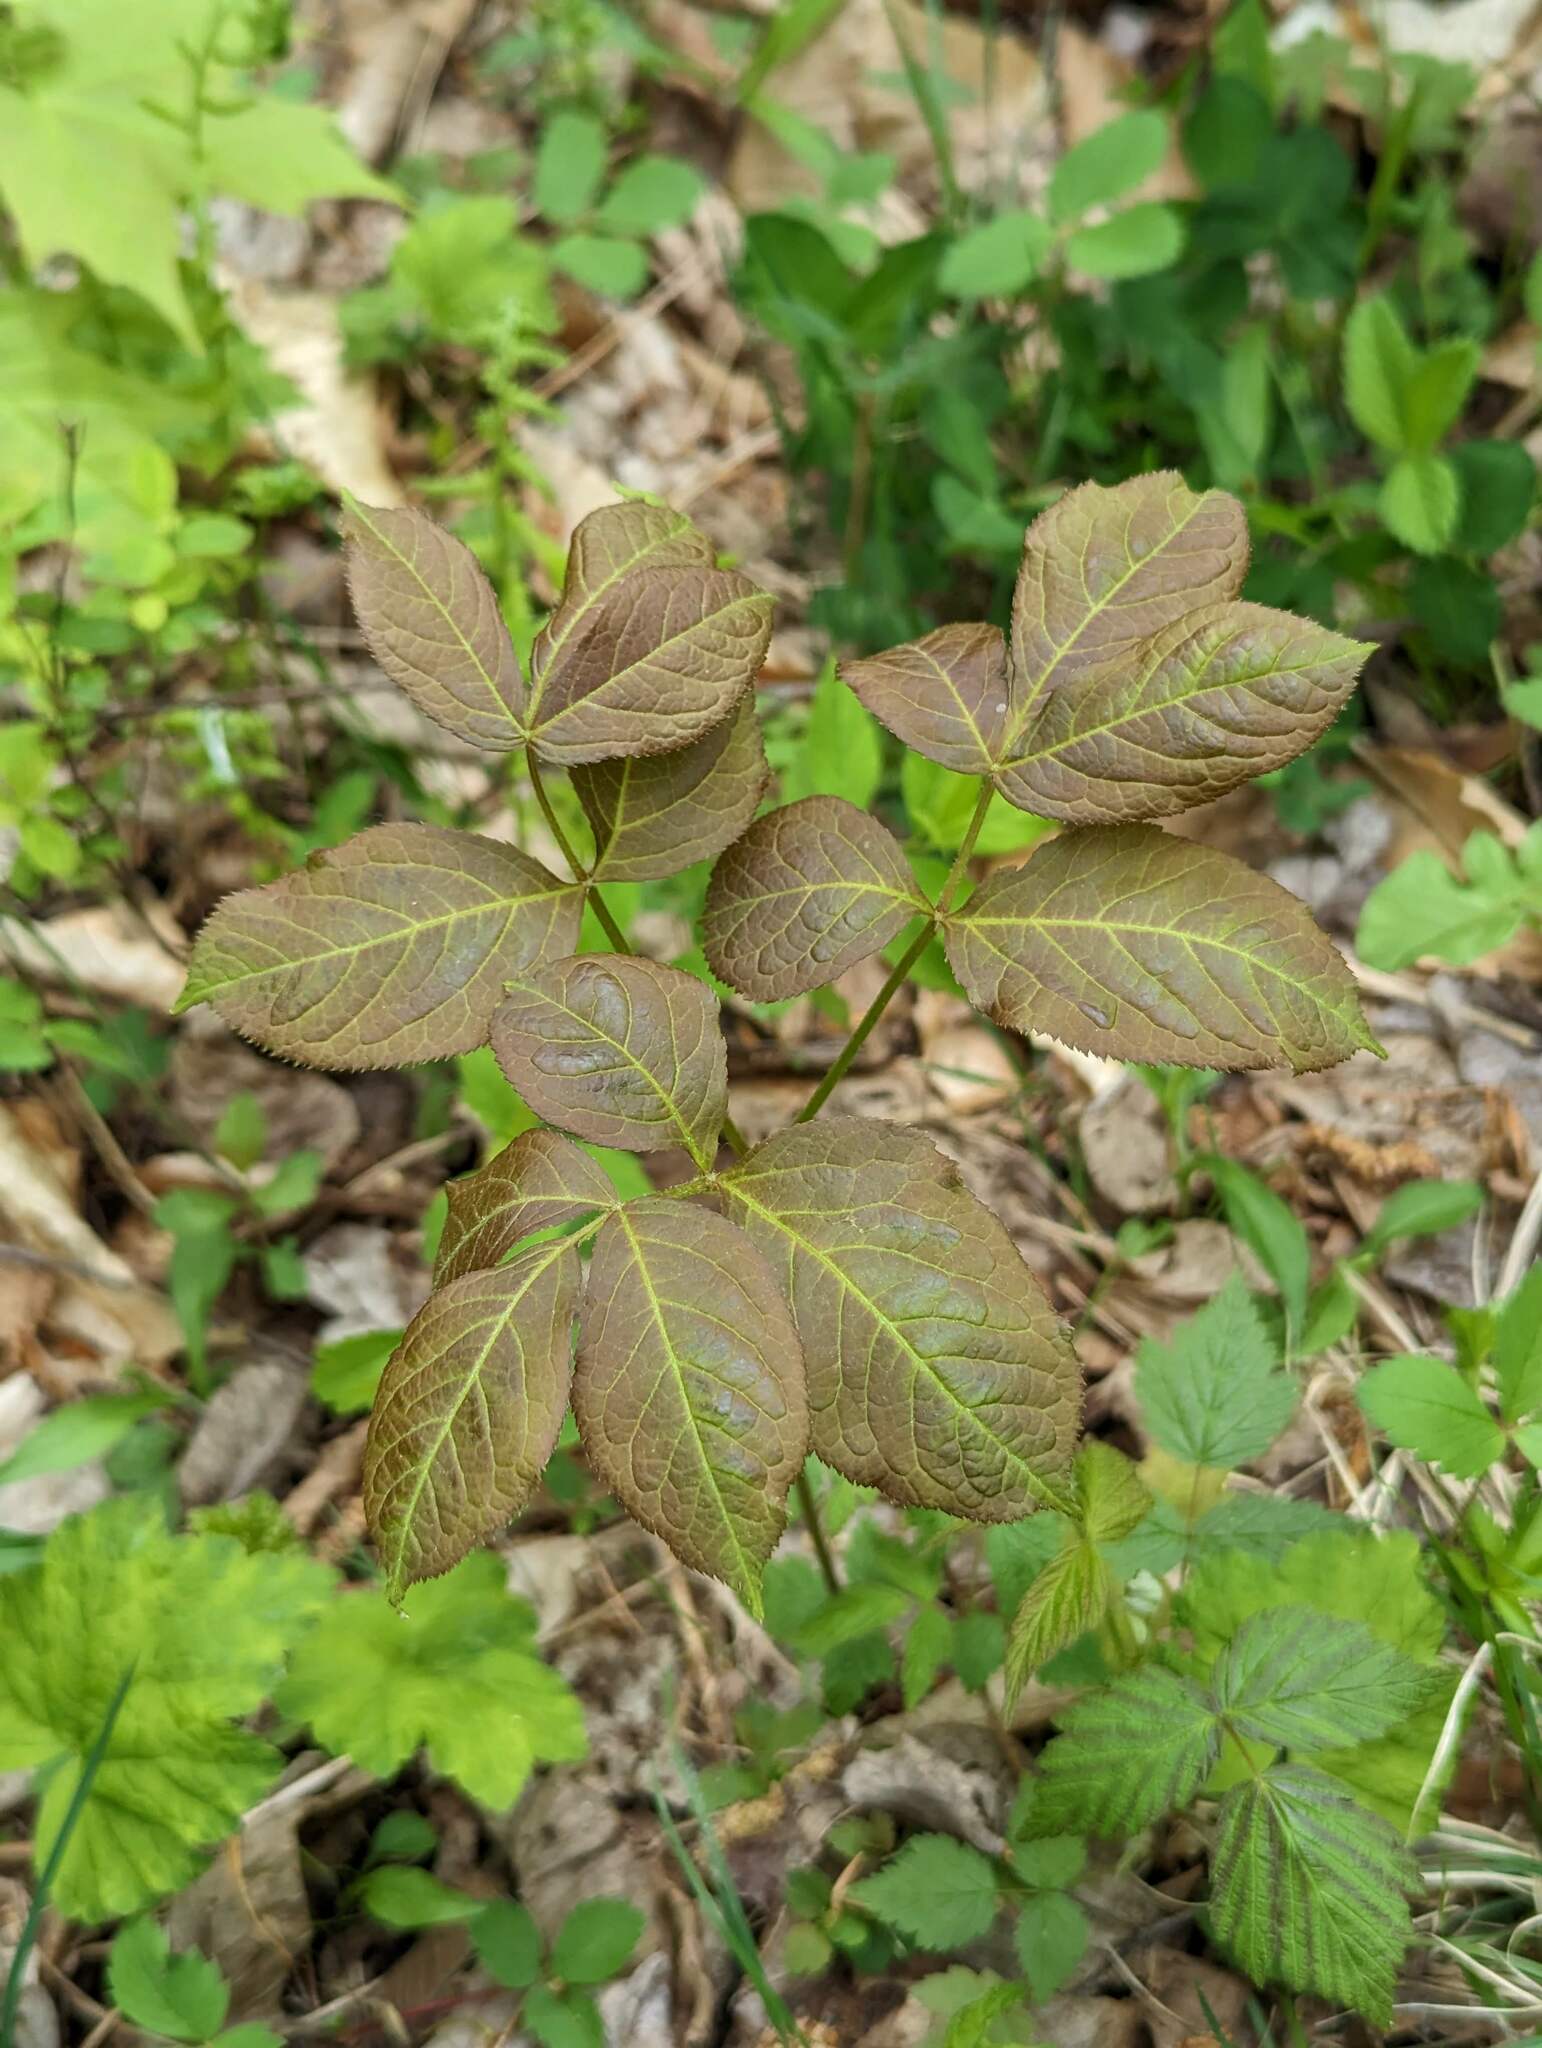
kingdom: Plantae
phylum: Tracheophyta
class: Magnoliopsida
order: Apiales
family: Araliaceae
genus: Aralia
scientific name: Aralia nudicaulis
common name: Wild sarsaparilla
